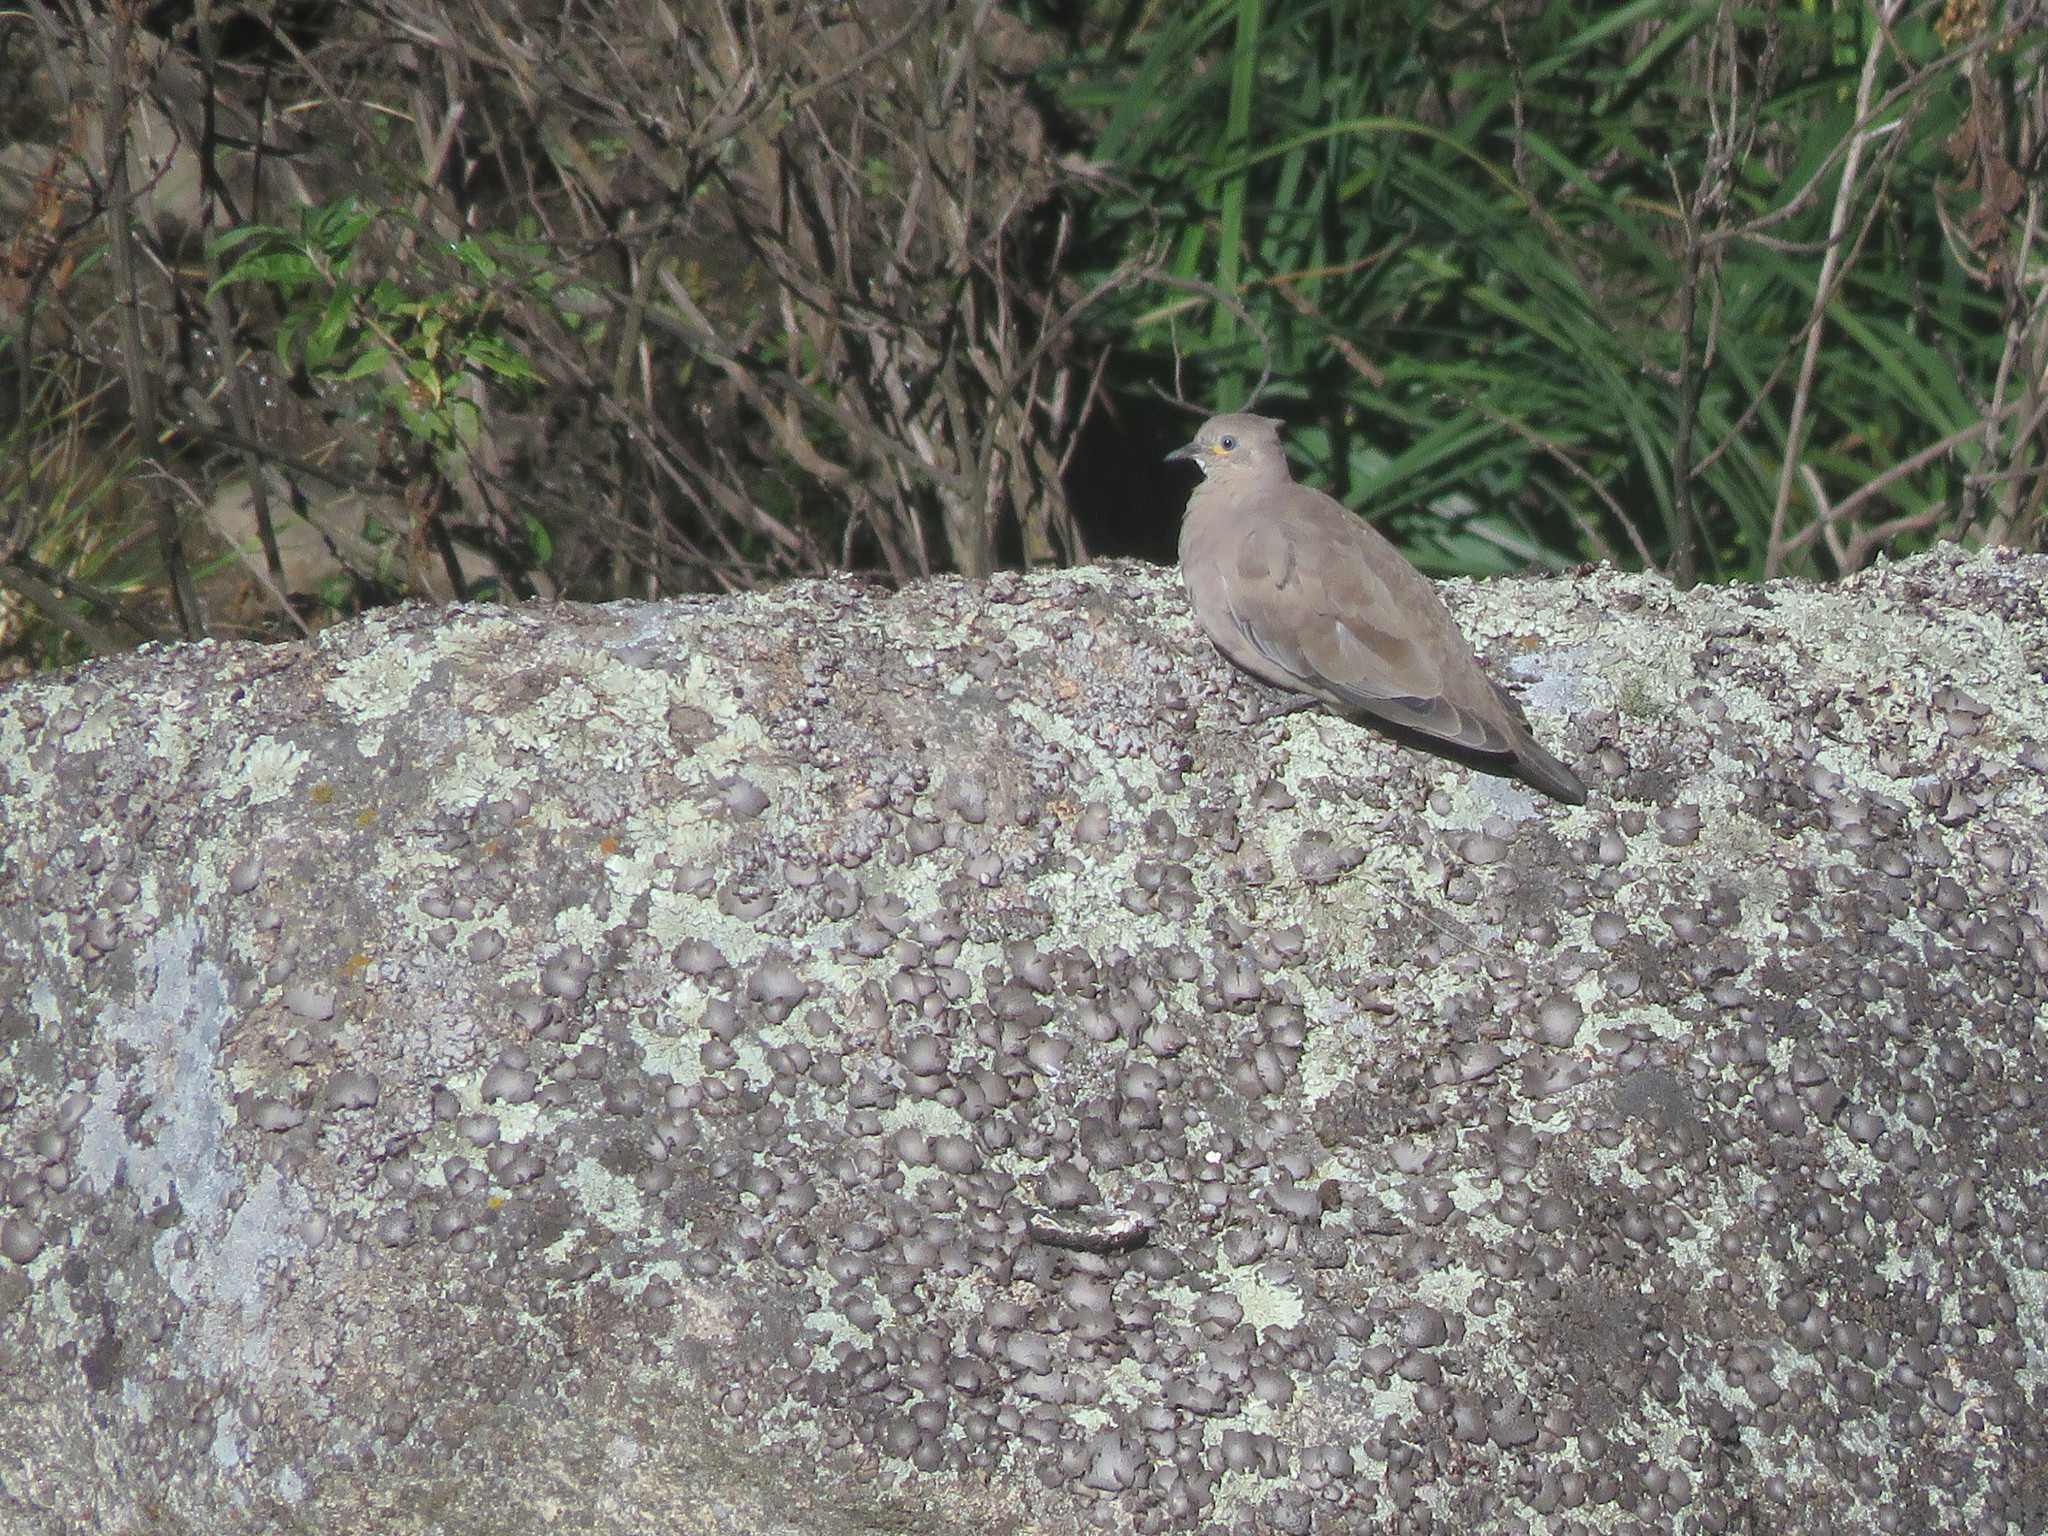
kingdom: Animalia
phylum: Chordata
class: Aves
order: Columbiformes
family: Columbidae
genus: Metriopelia
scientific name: Metriopelia melanoptera
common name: Black-winged ground dove
